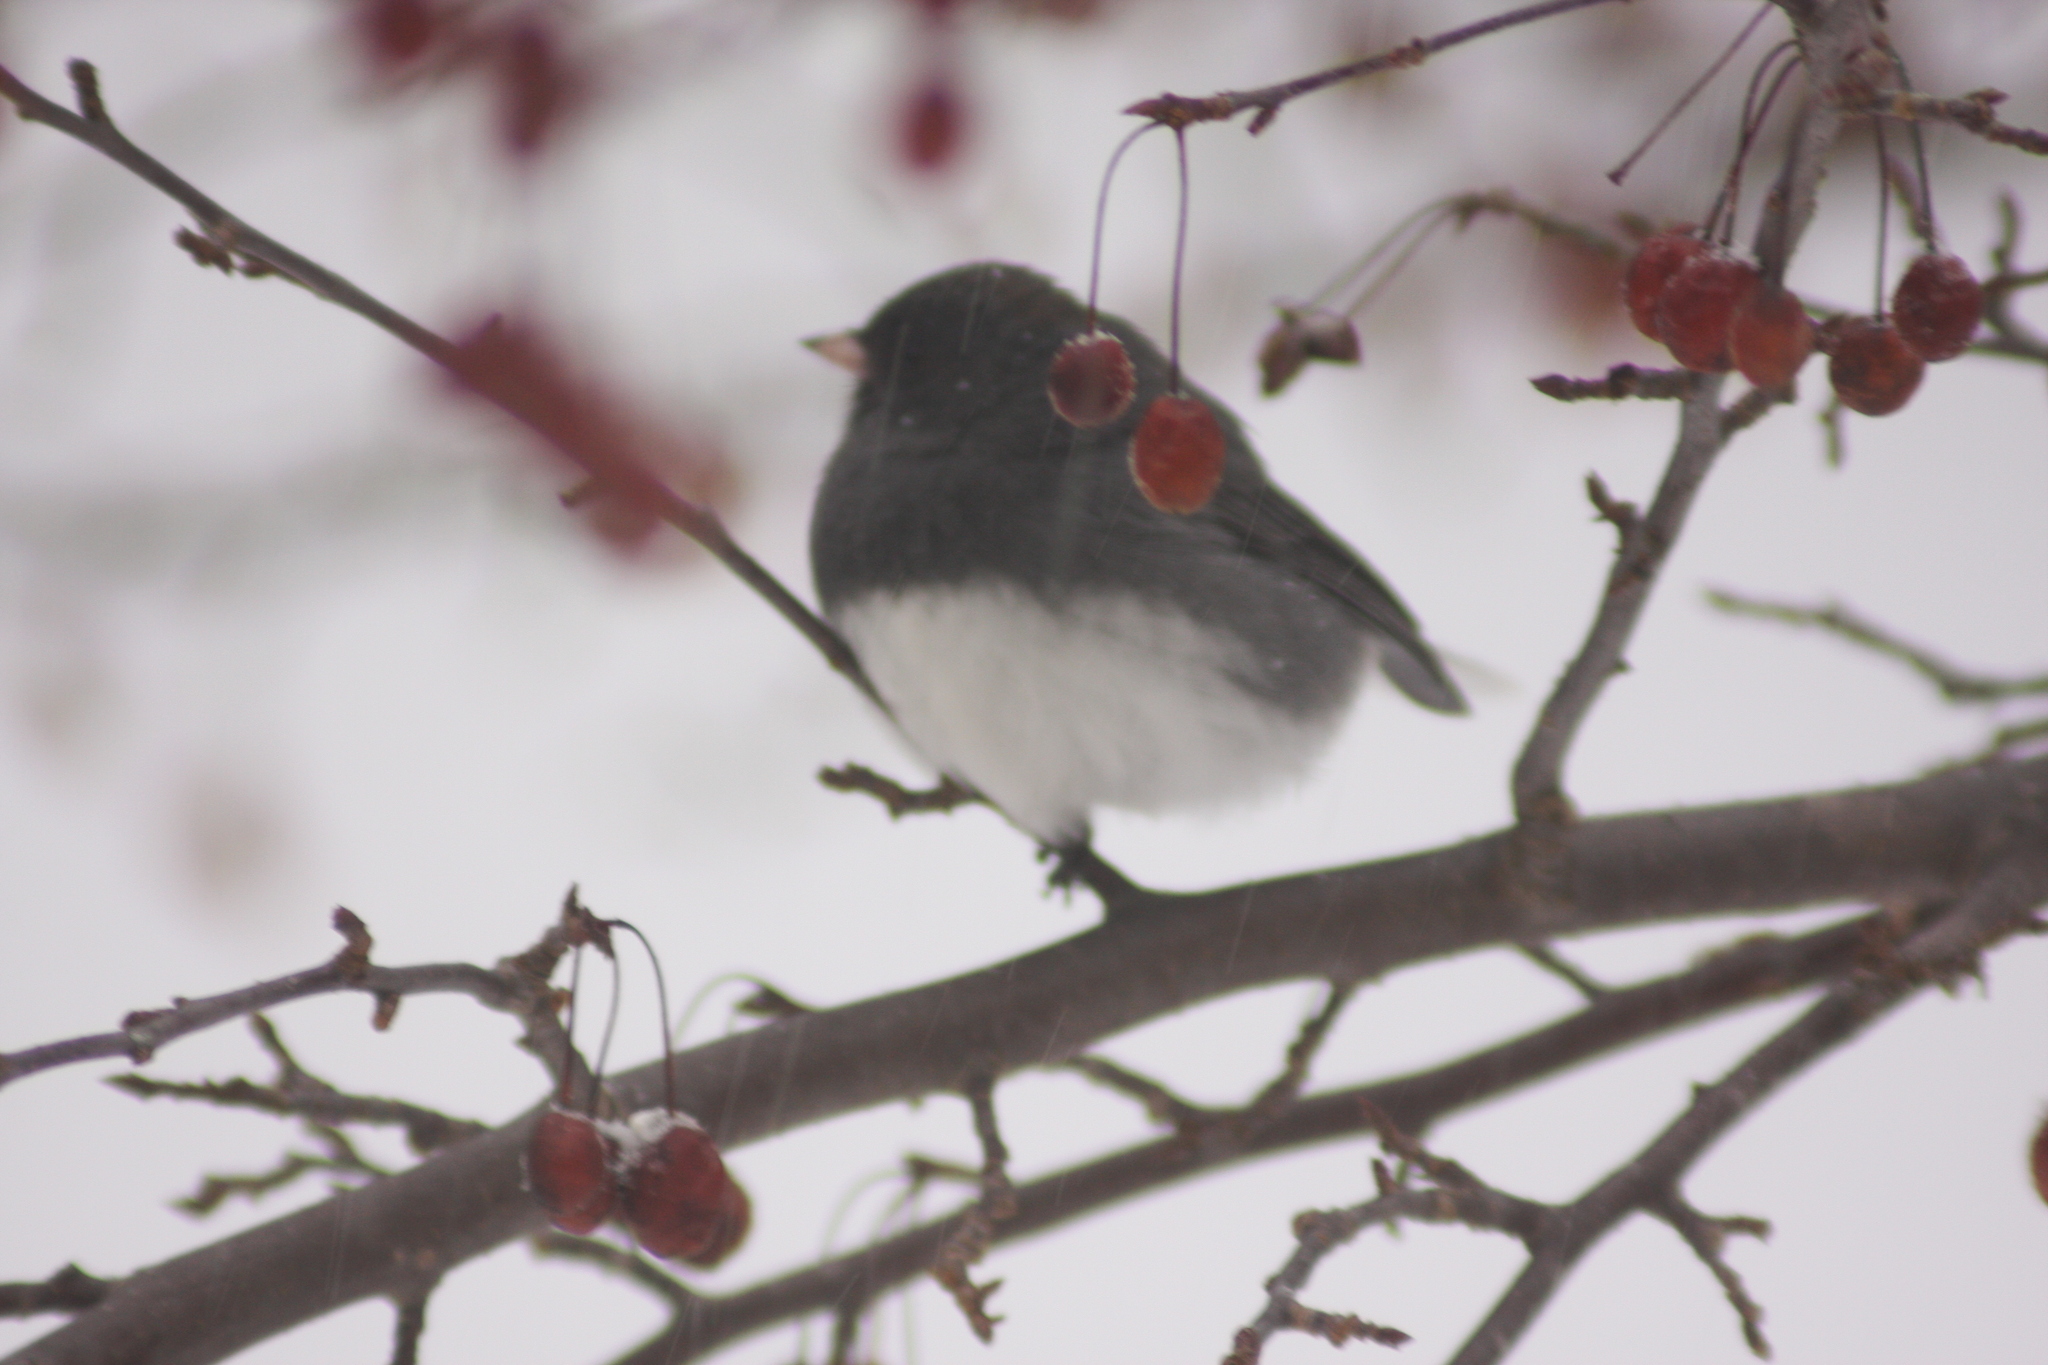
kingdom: Animalia
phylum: Chordata
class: Aves
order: Passeriformes
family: Passerellidae
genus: Junco
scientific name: Junco hyemalis
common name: Dark-eyed junco
